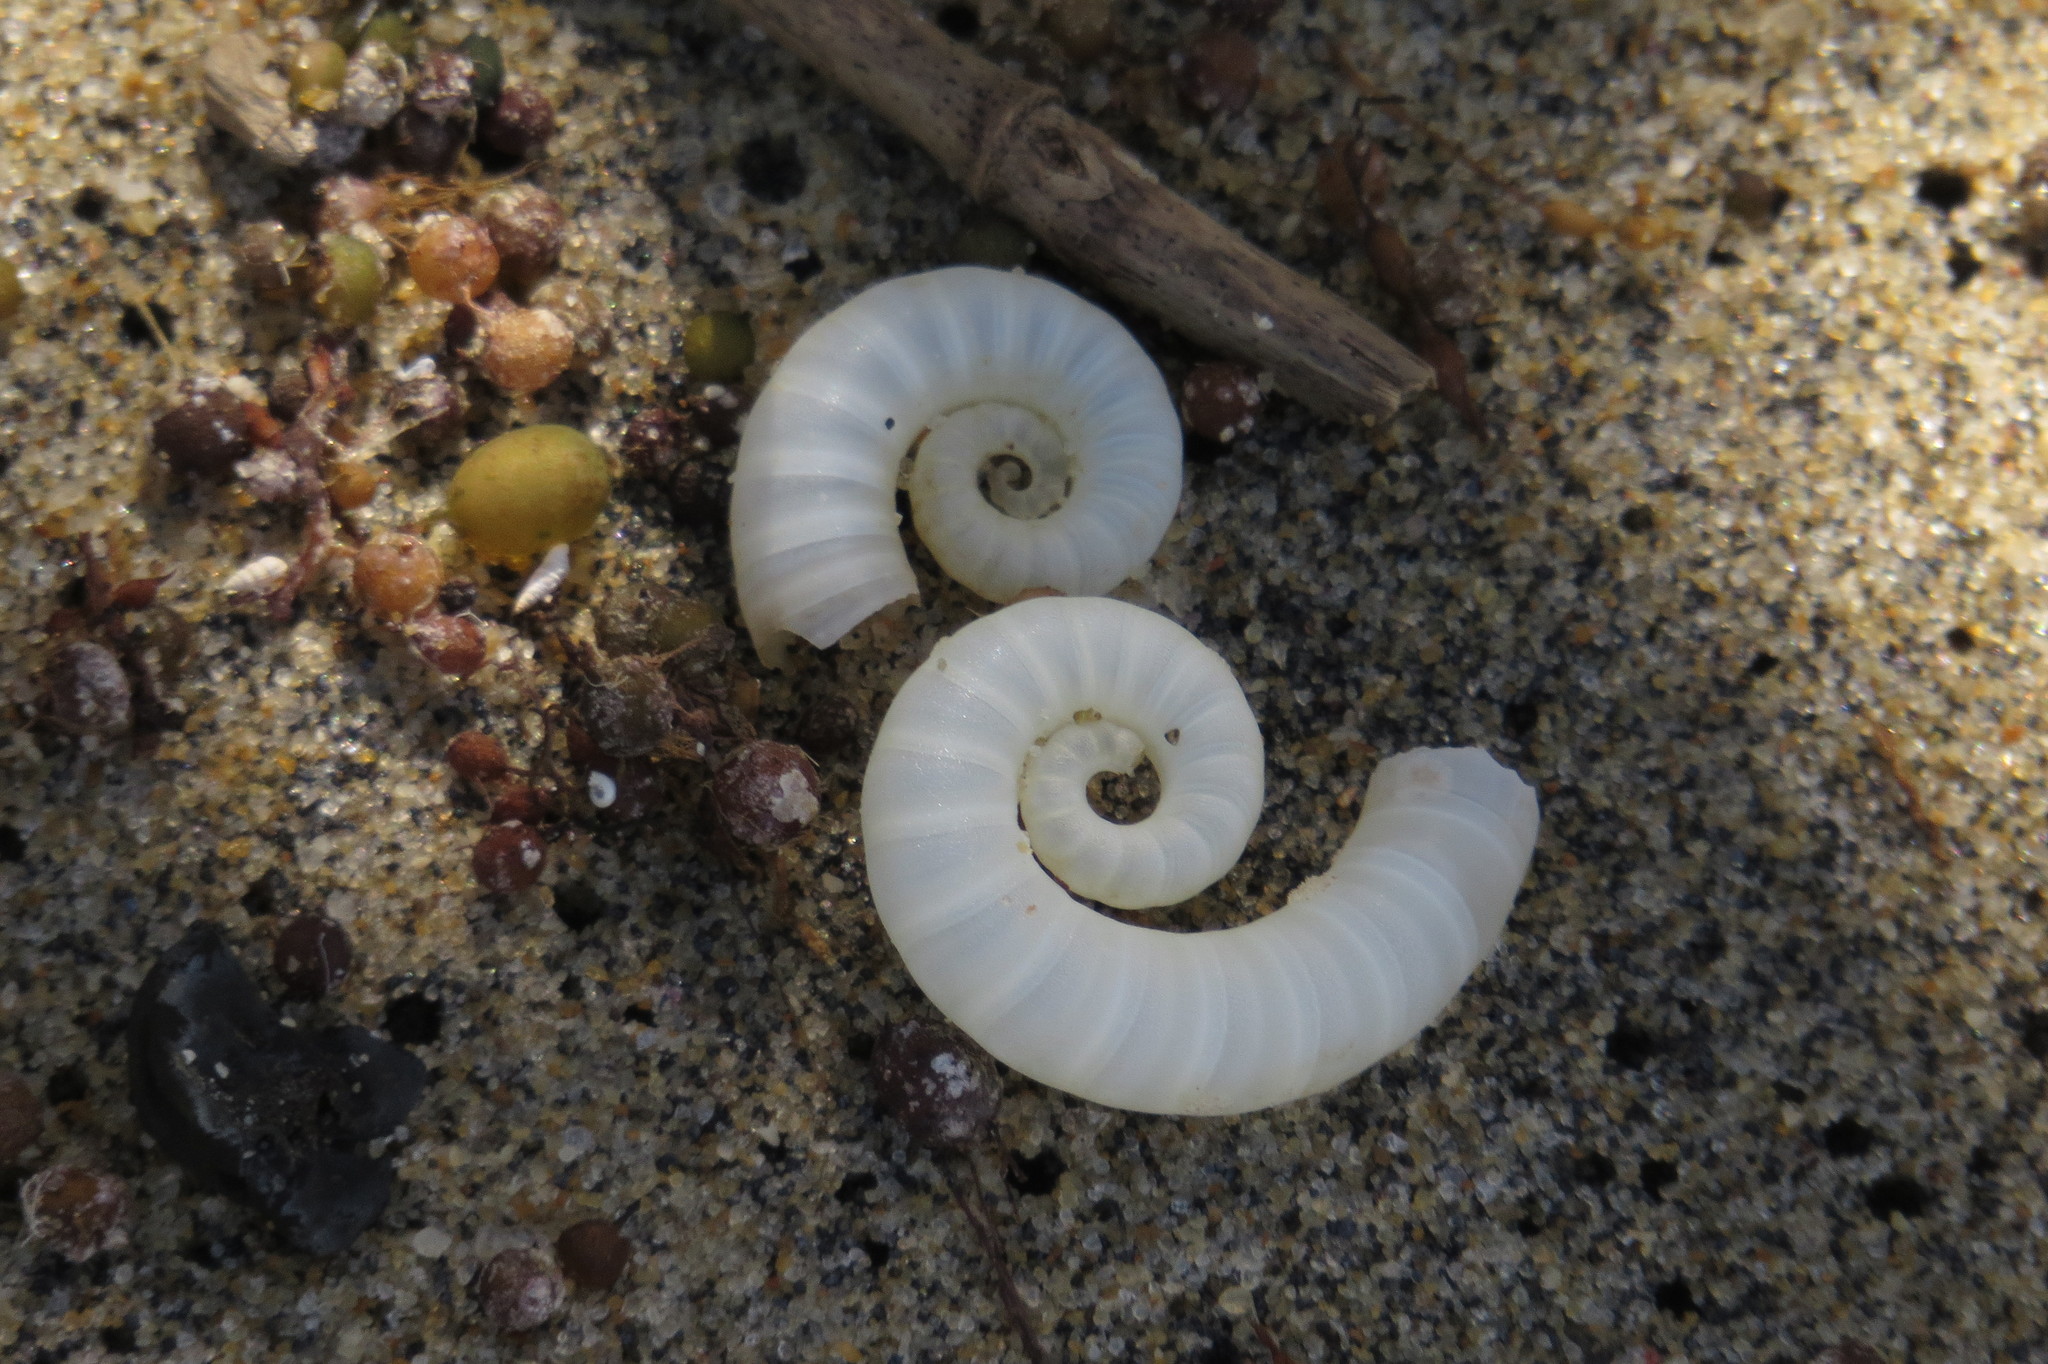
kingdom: Animalia
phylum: Mollusca
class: Cephalopoda
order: Spirulida
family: Spirulidae
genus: Spirula
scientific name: Spirula spirula
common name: Ram's horn squid
